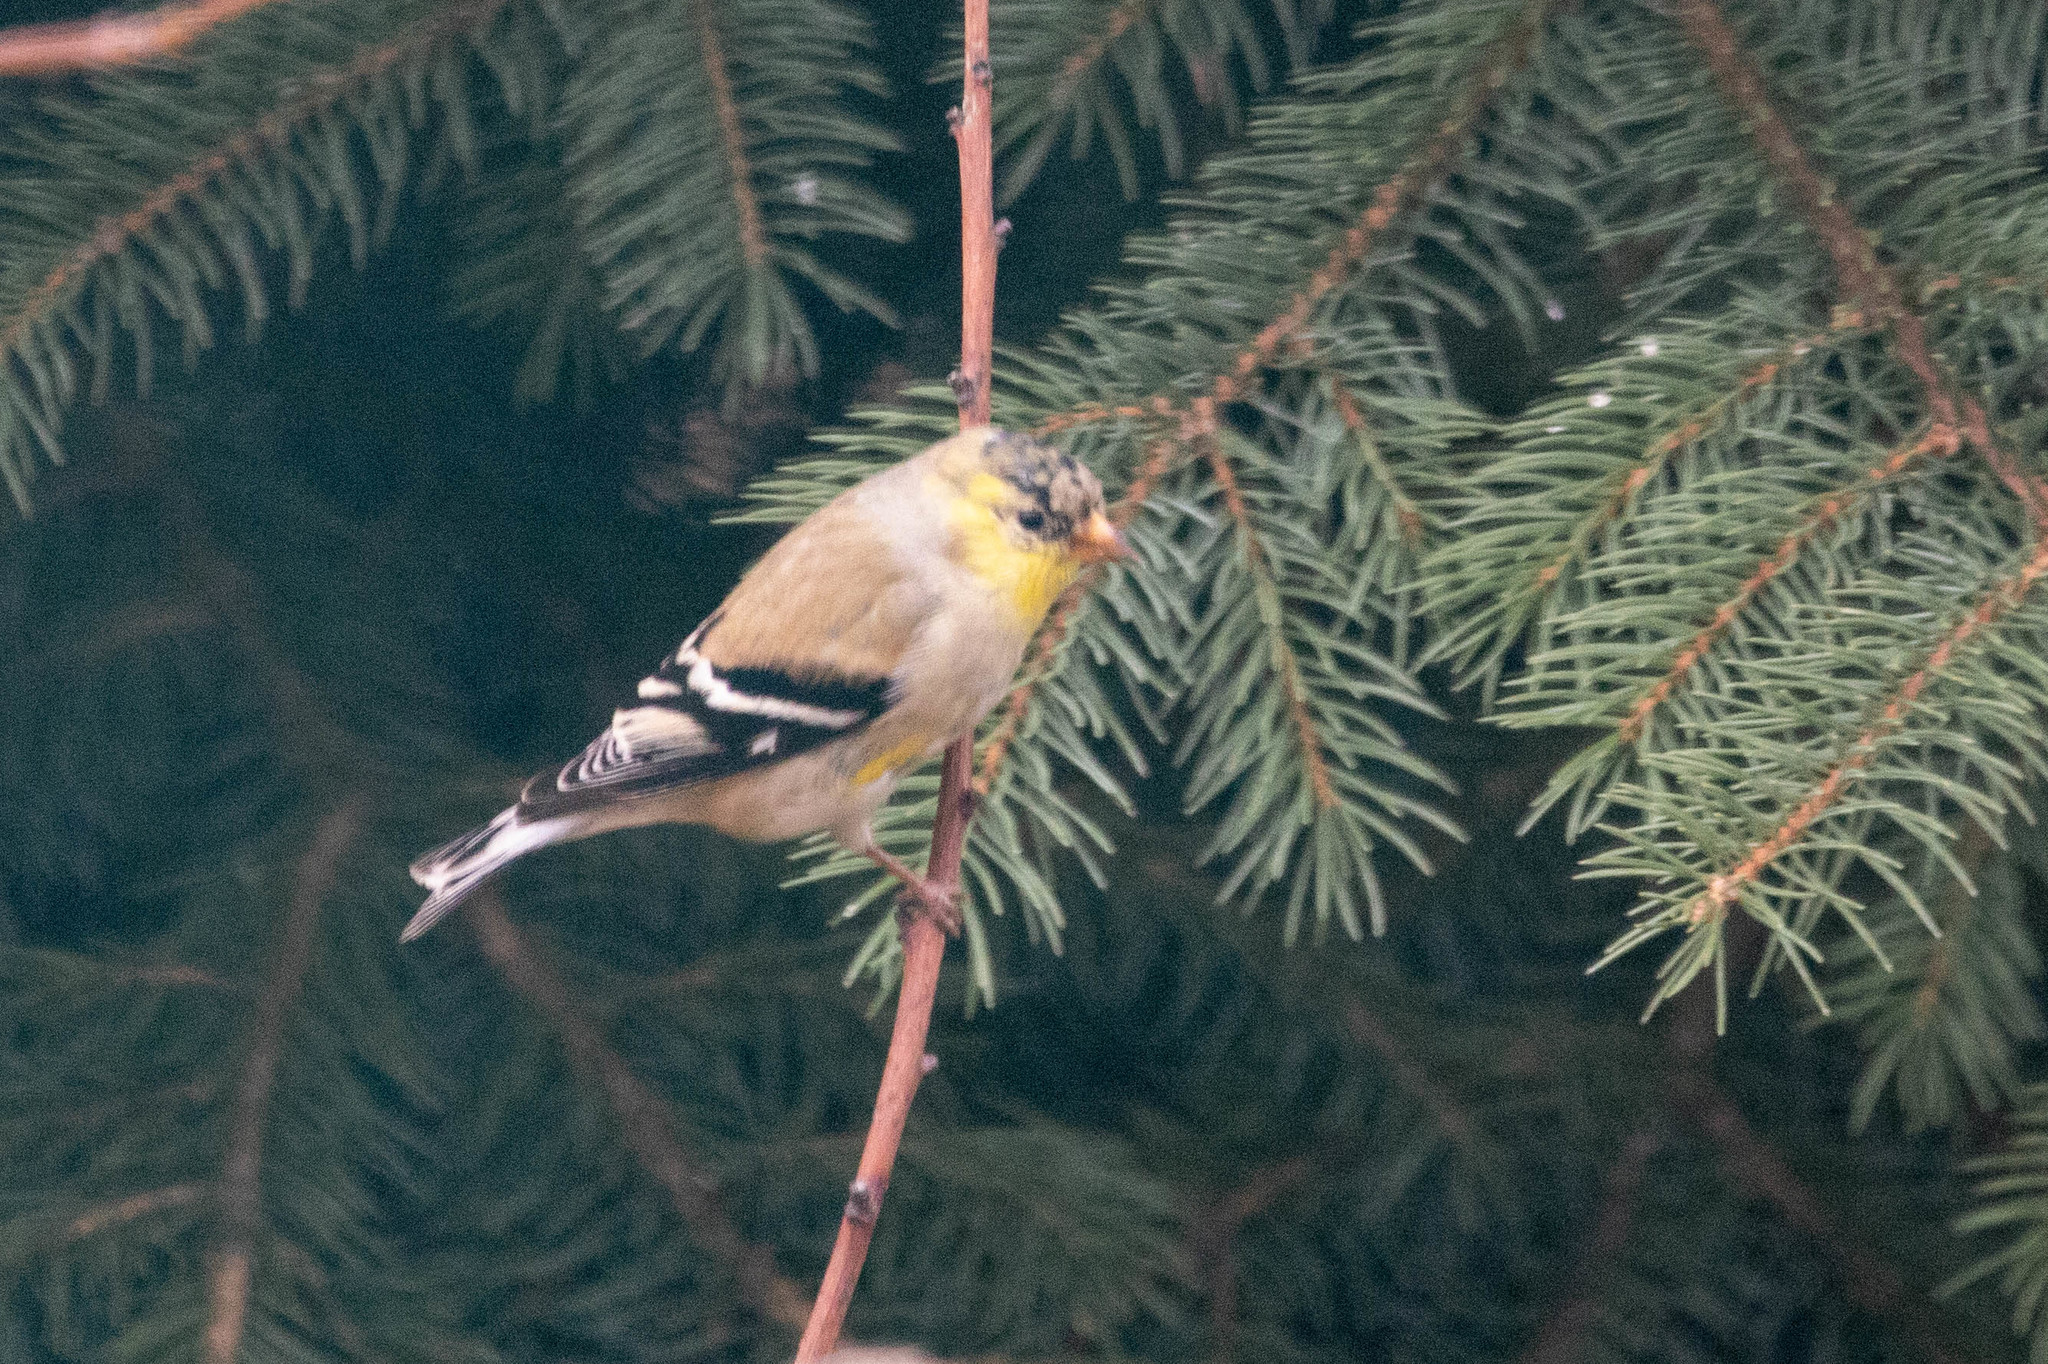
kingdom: Animalia
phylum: Chordata
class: Aves
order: Passeriformes
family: Fringillidae
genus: Spinus
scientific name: Spinus tristis
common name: American goldfinch
